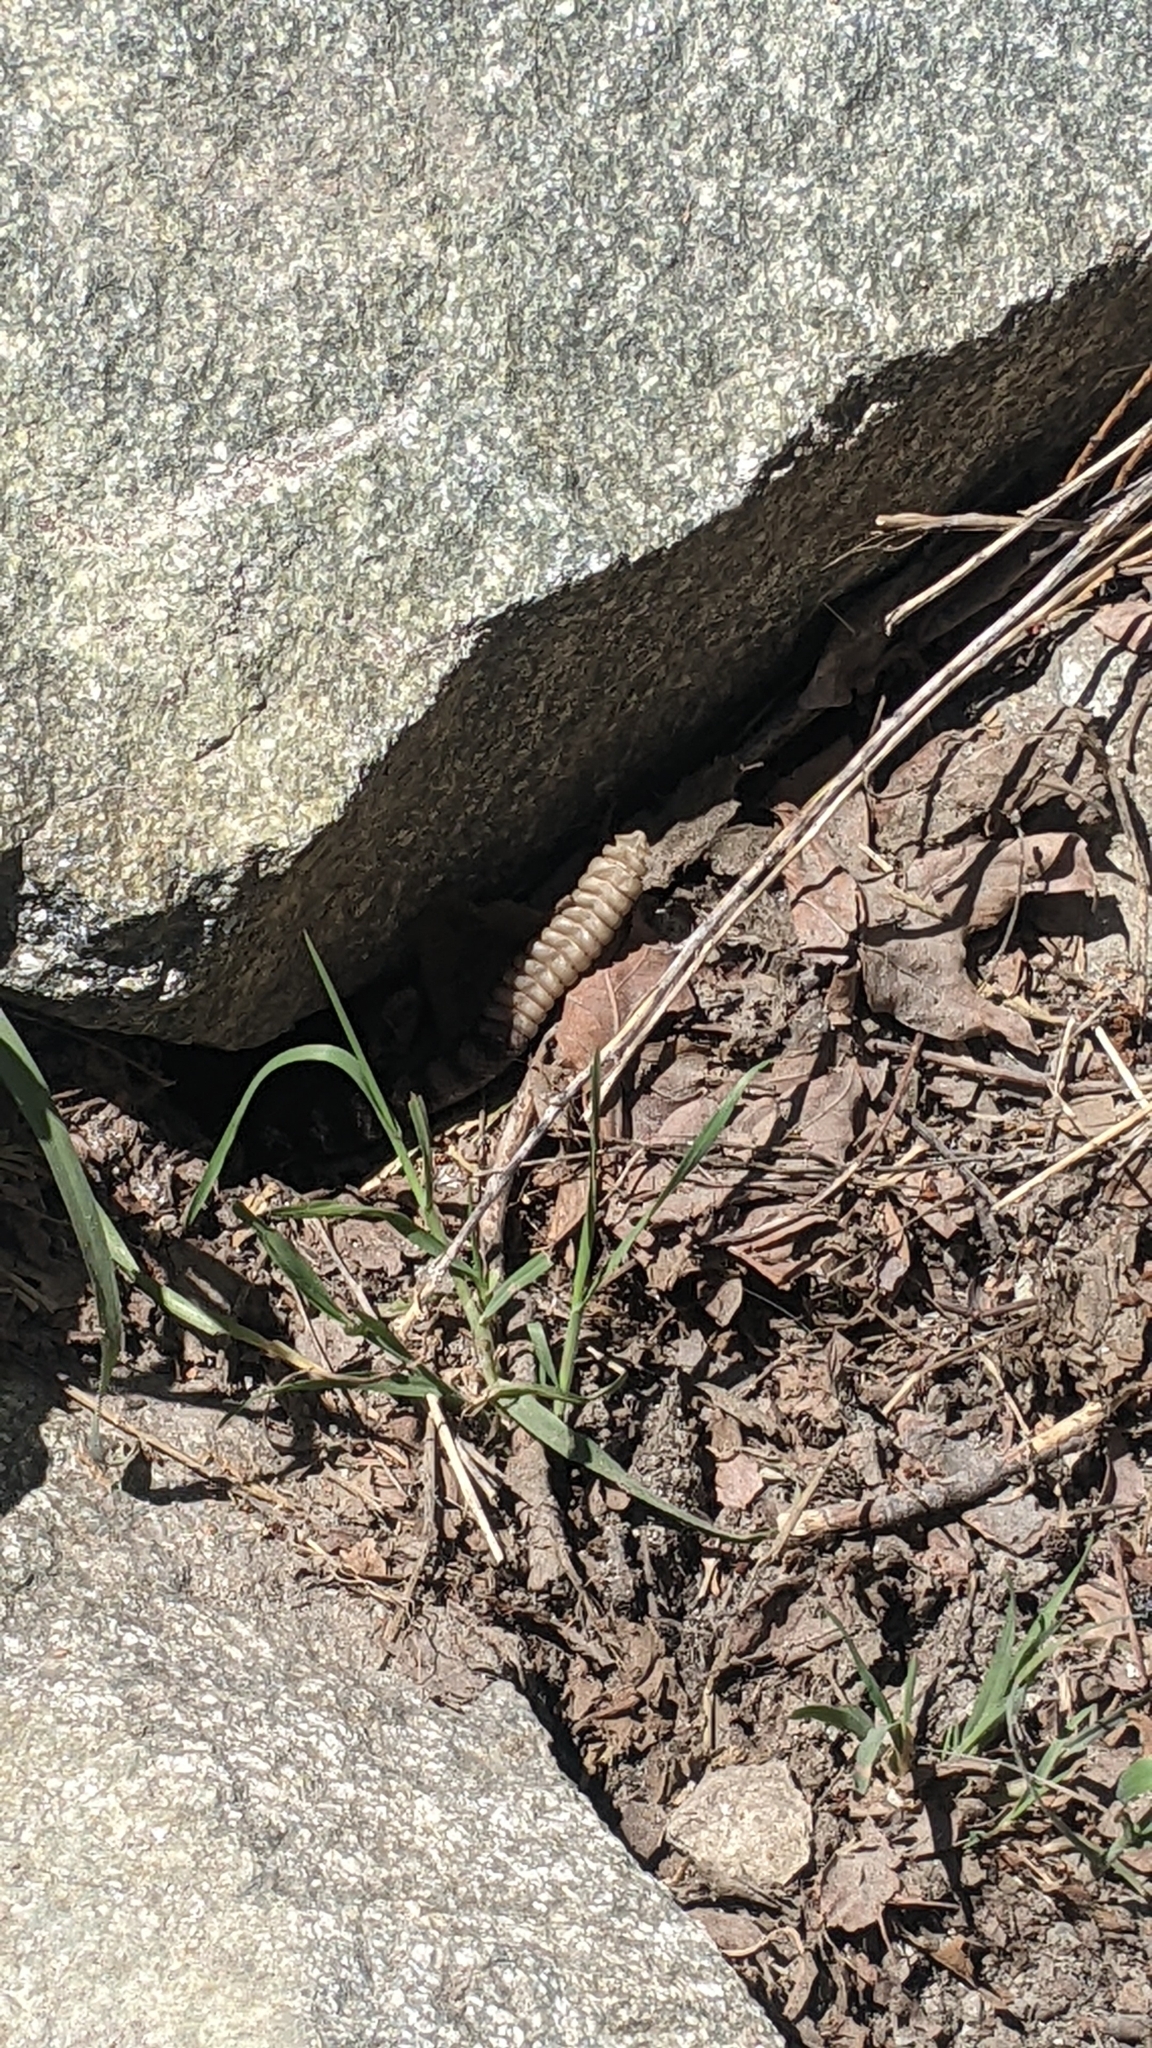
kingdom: Animalia
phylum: Chordata
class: Squamata
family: Viperidae
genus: Crotalus
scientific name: Crotalus oreganus
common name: Abyssus
